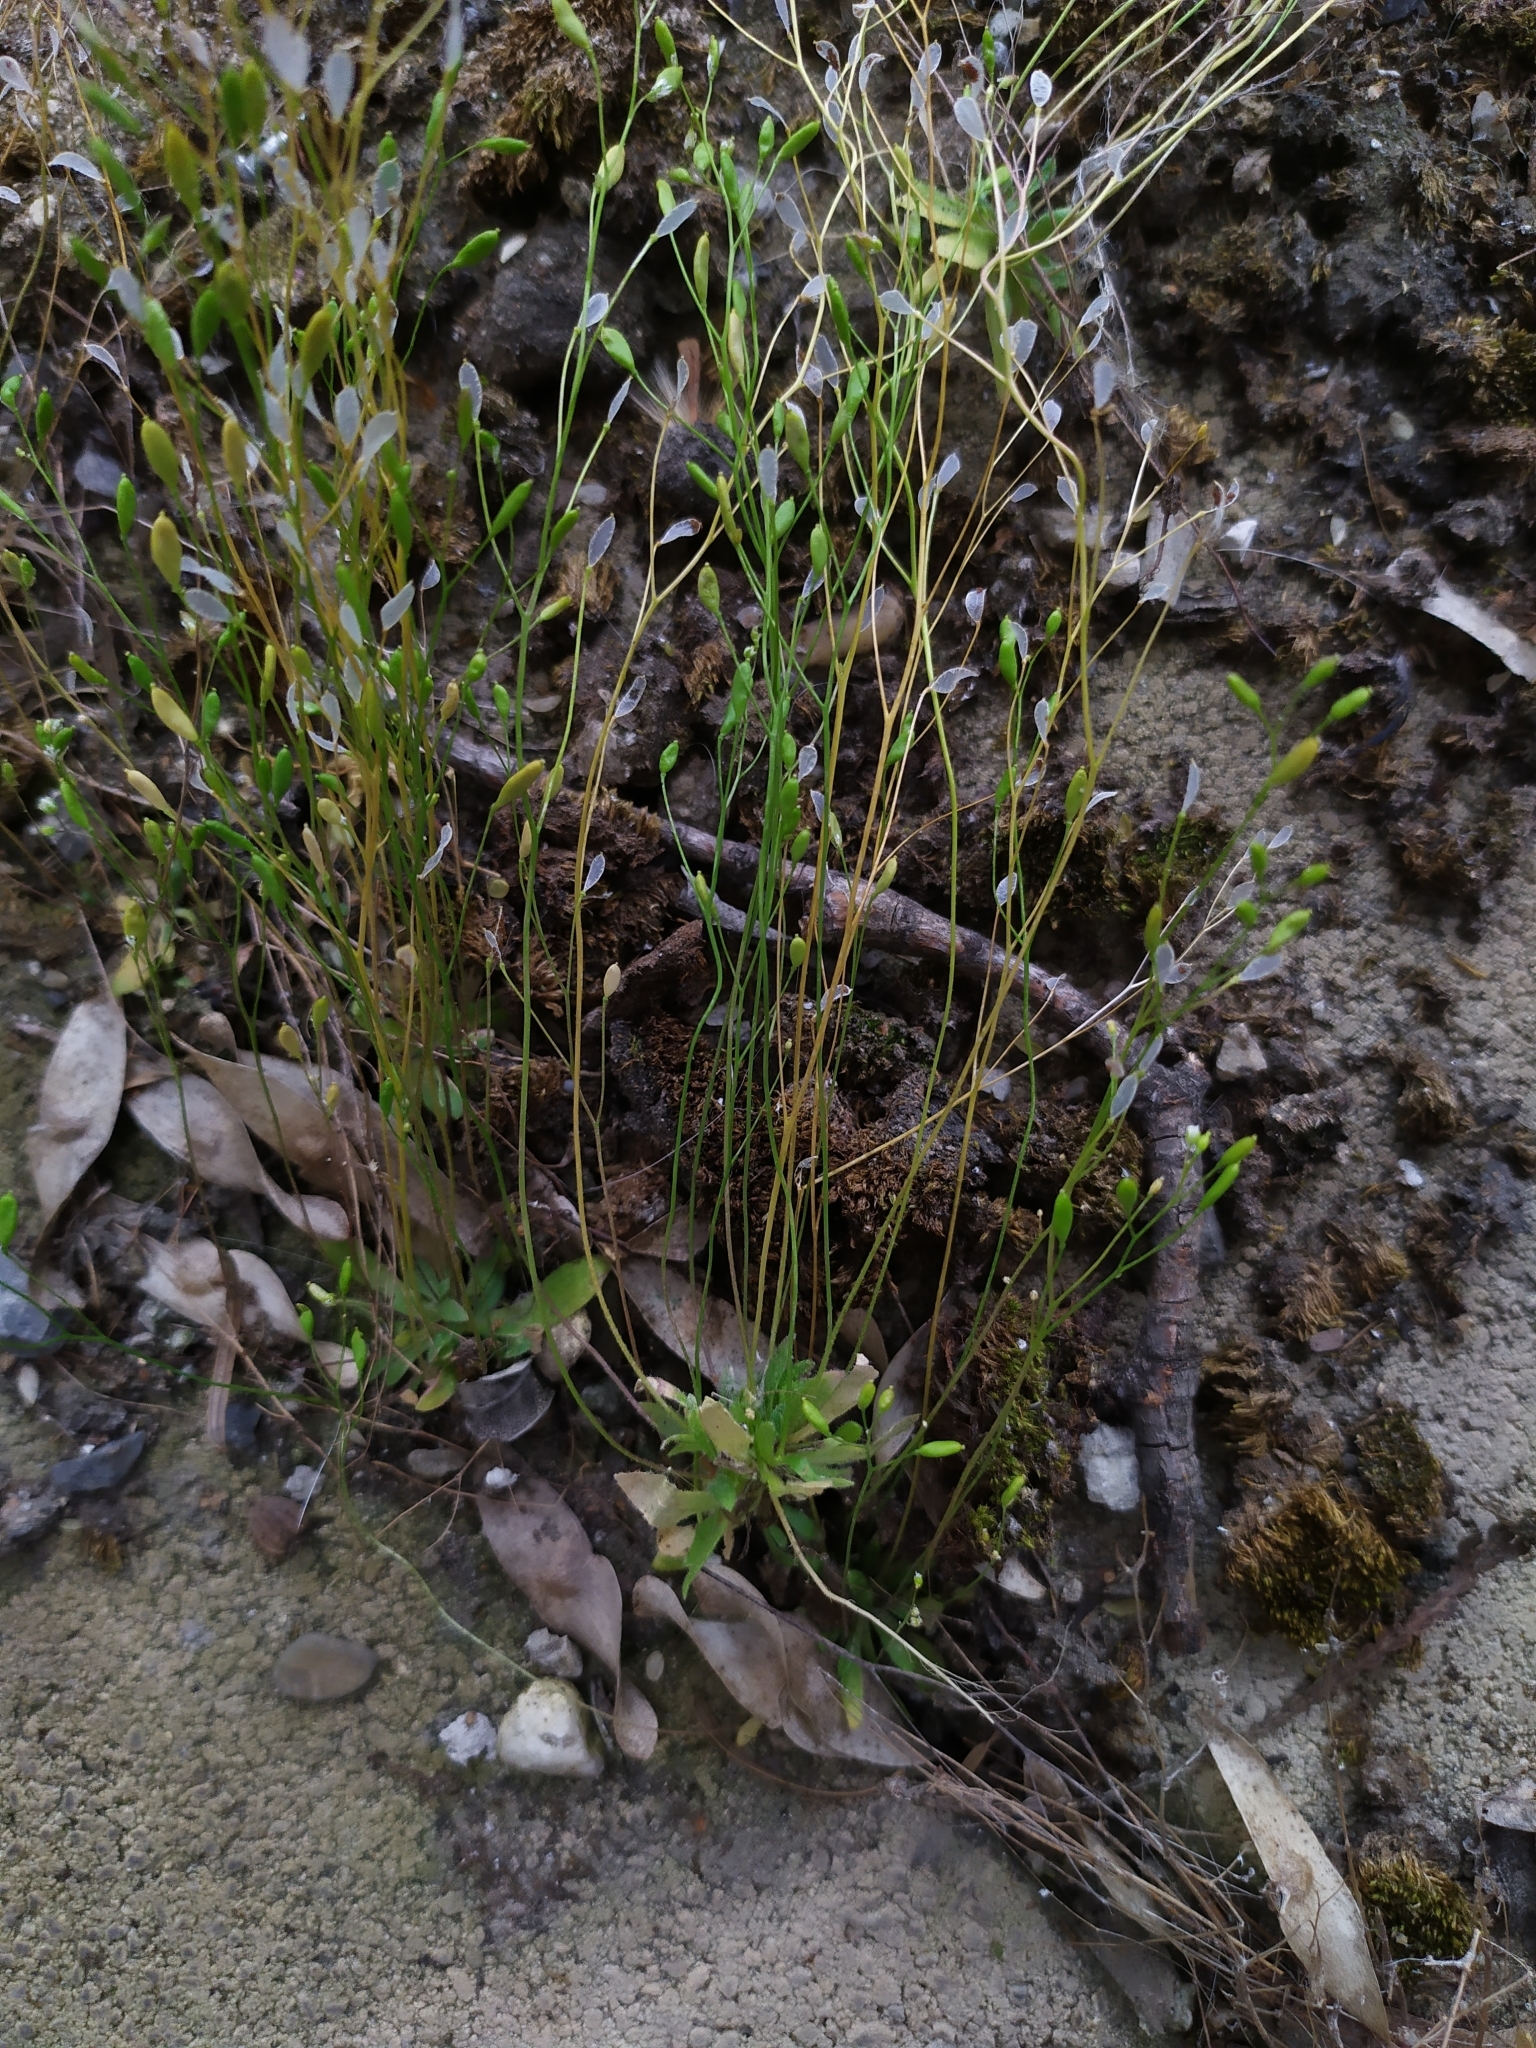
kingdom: Plantae
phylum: Tracheophyta
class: Magnoliopsida
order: Brassicales
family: Brassicaceae
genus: Draba
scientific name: Draba verna
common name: Spring draba
